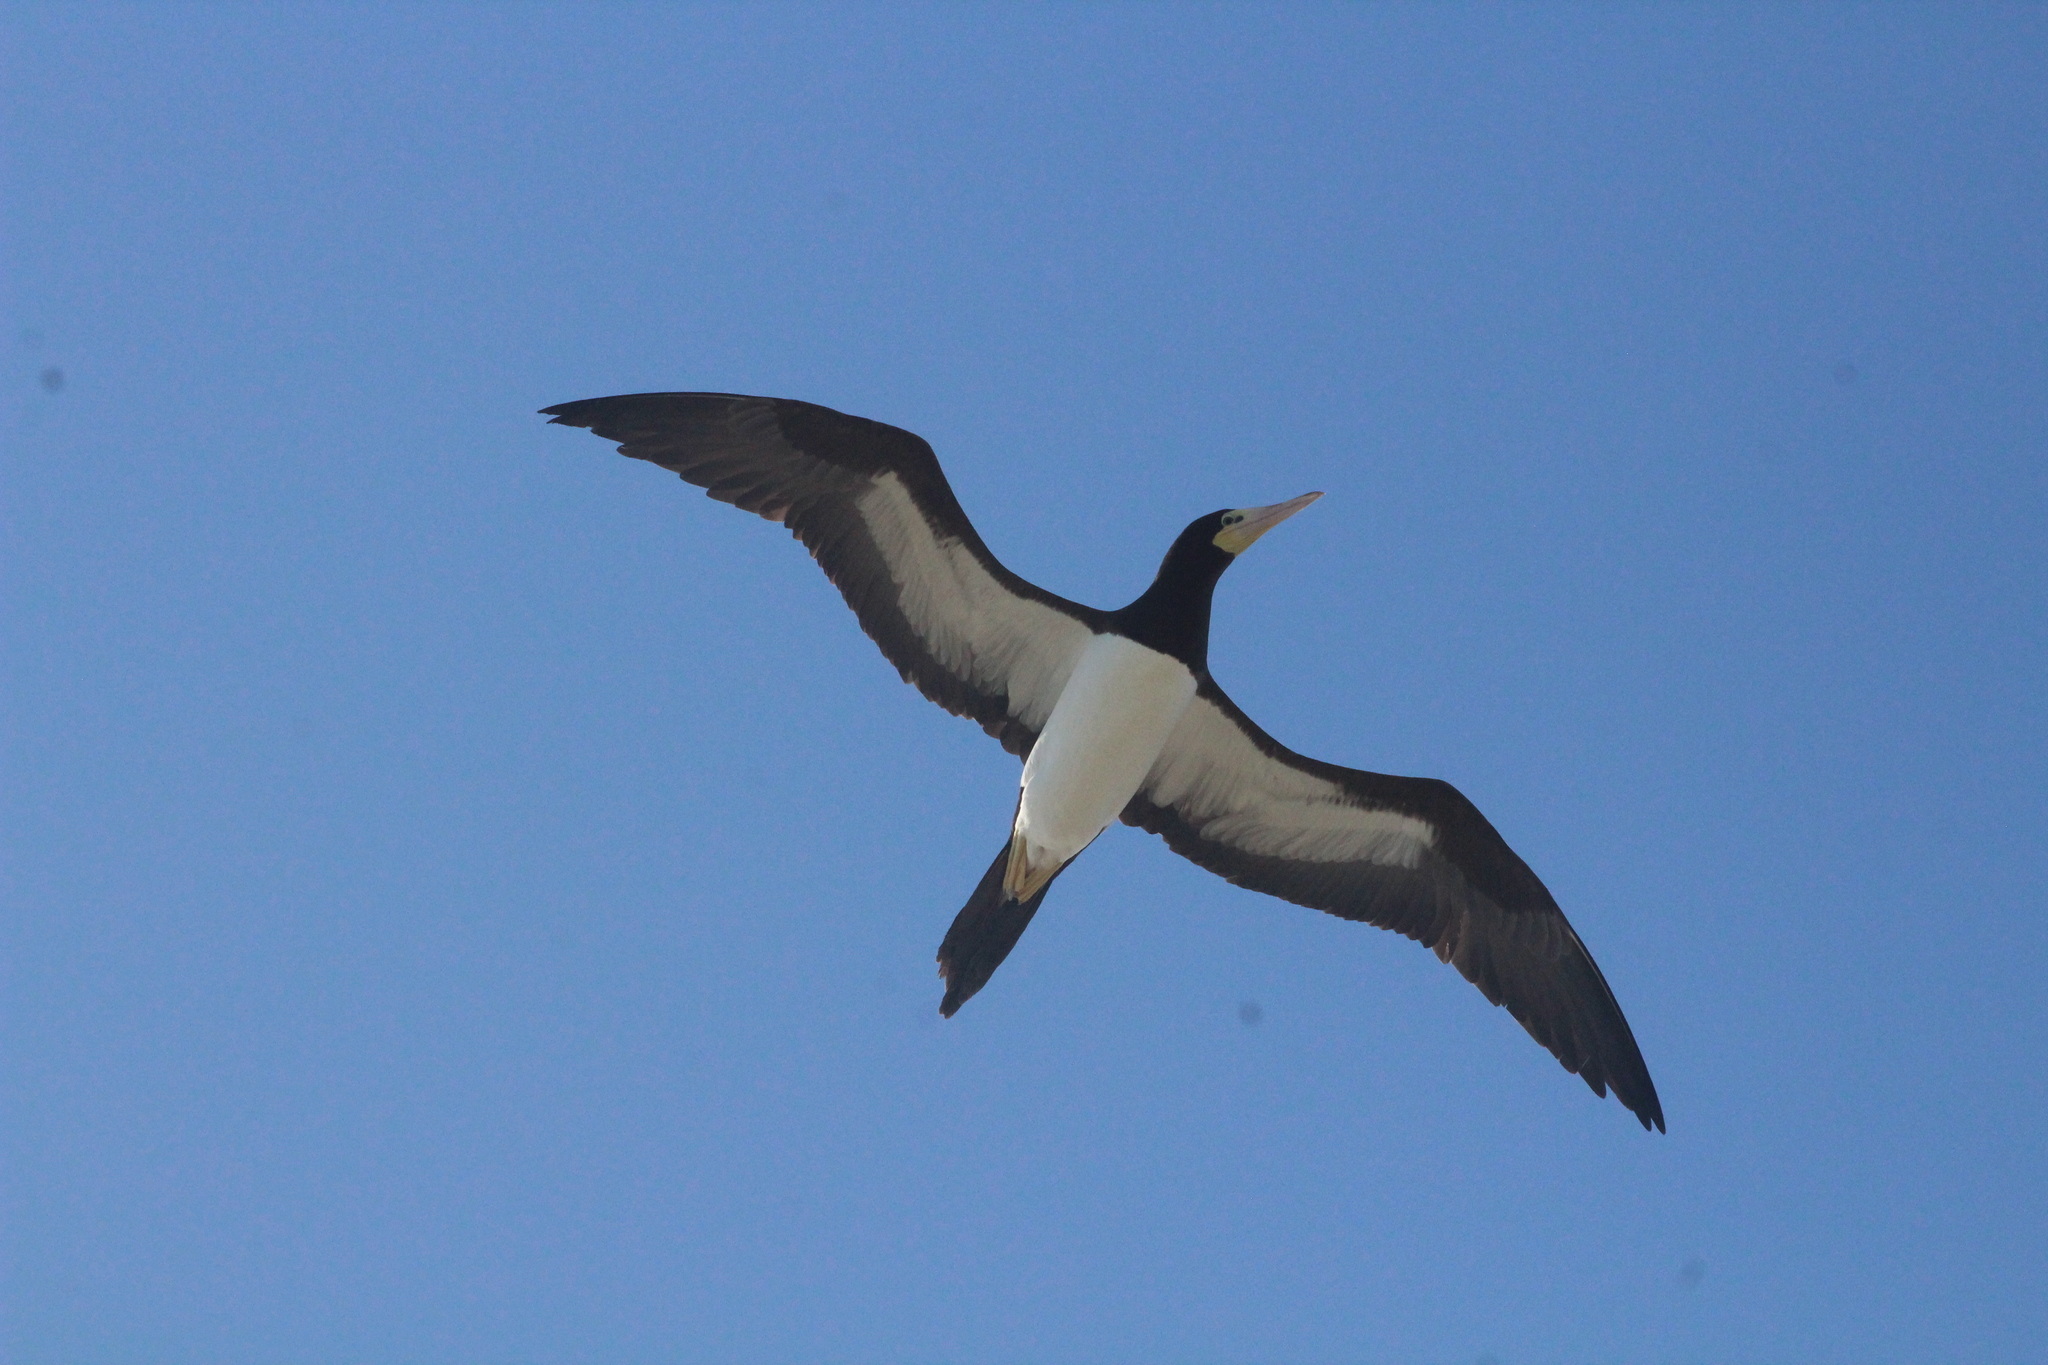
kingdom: Animalia
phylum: Chordata
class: Aves
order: Suliformes
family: Sulidae
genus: Sula
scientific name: Sula leucogaster
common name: Brown booby
